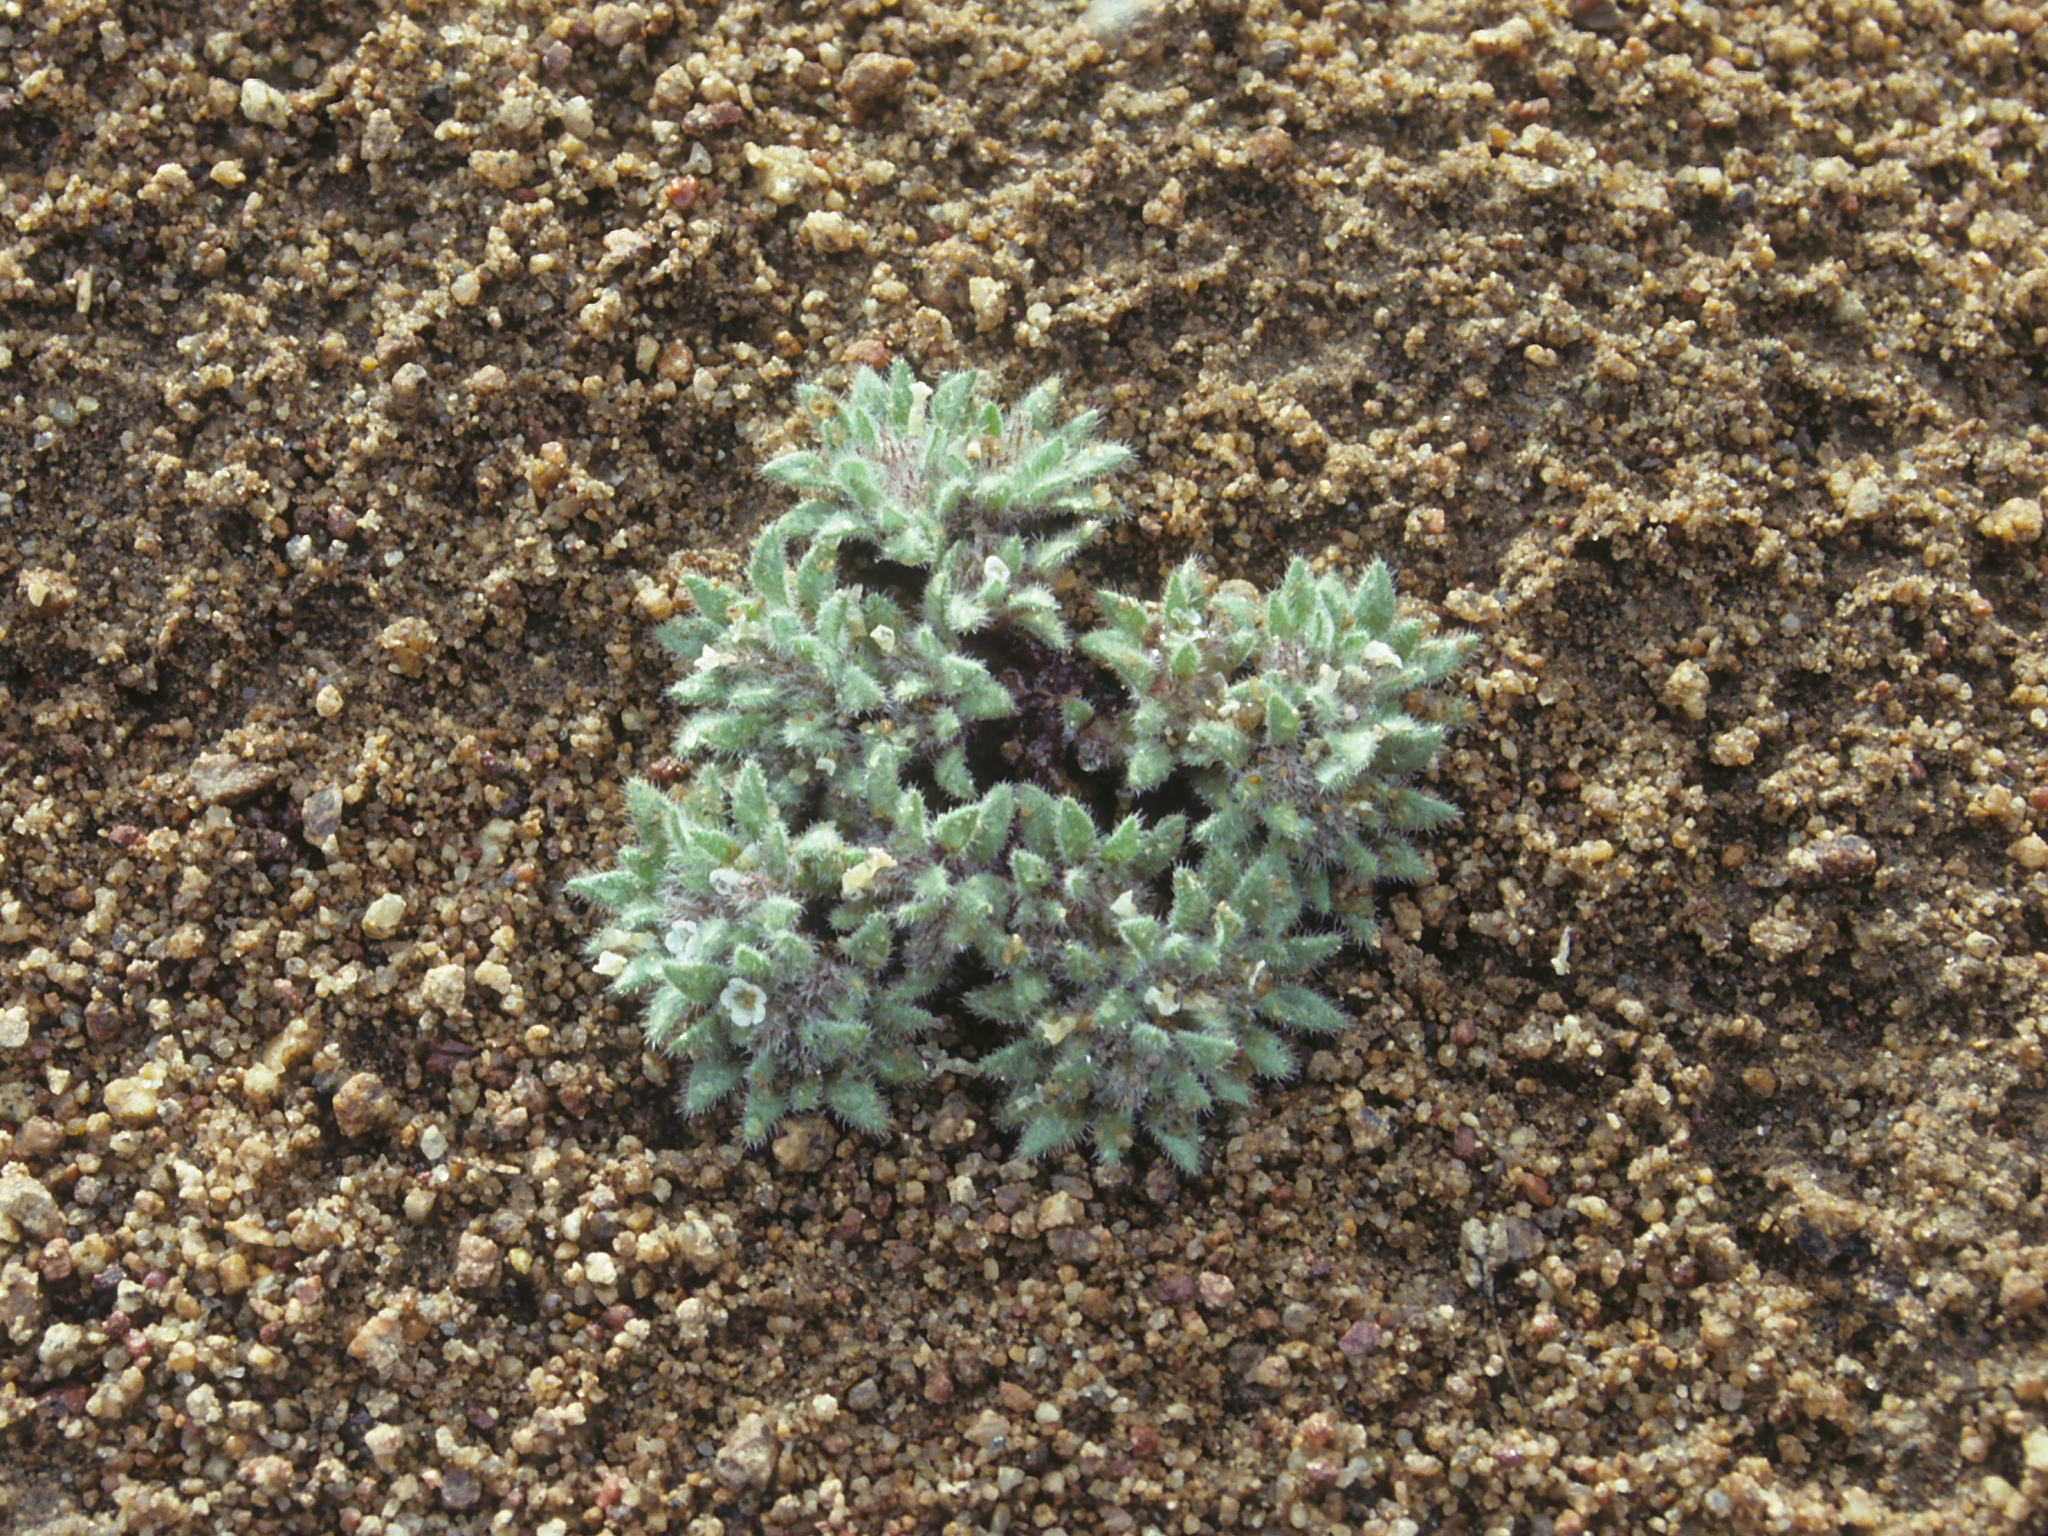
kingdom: Plantae
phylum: Tracheophyta
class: Magnoliopsida
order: Boraginales
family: Namaceae
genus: Nama
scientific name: Nama densa
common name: Leafy nama
